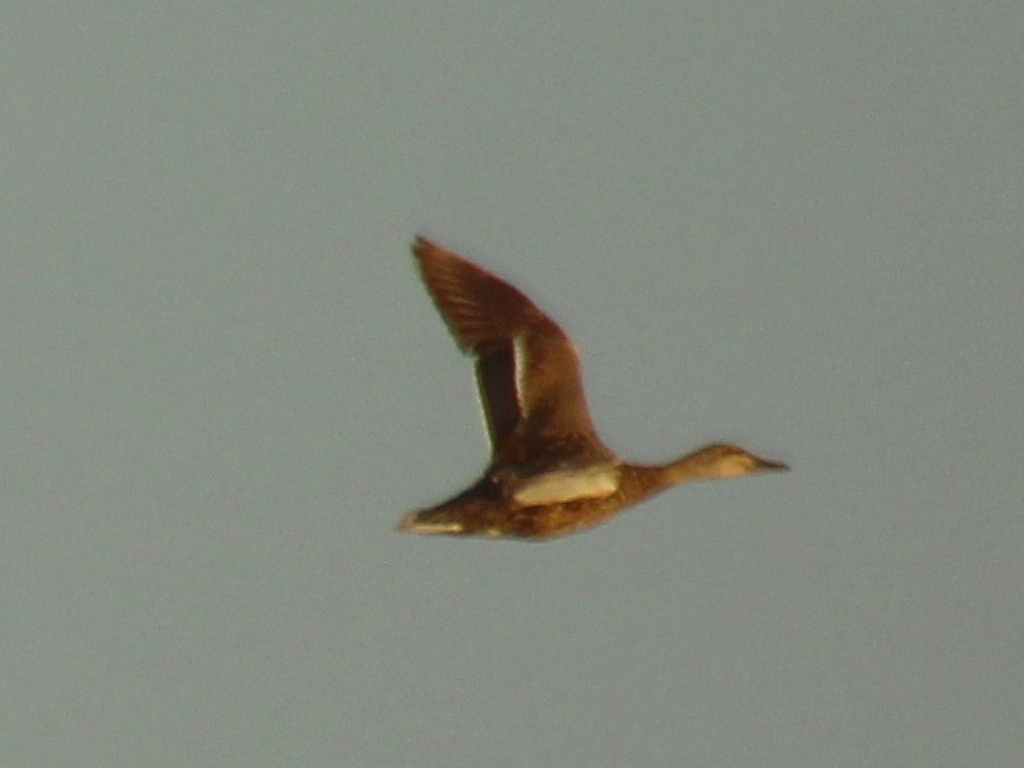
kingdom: Animalia
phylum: Chordata
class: Aves
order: Anseriformes
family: Anatidae
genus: Anas
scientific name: Anas platyrhynchos
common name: Mallard
